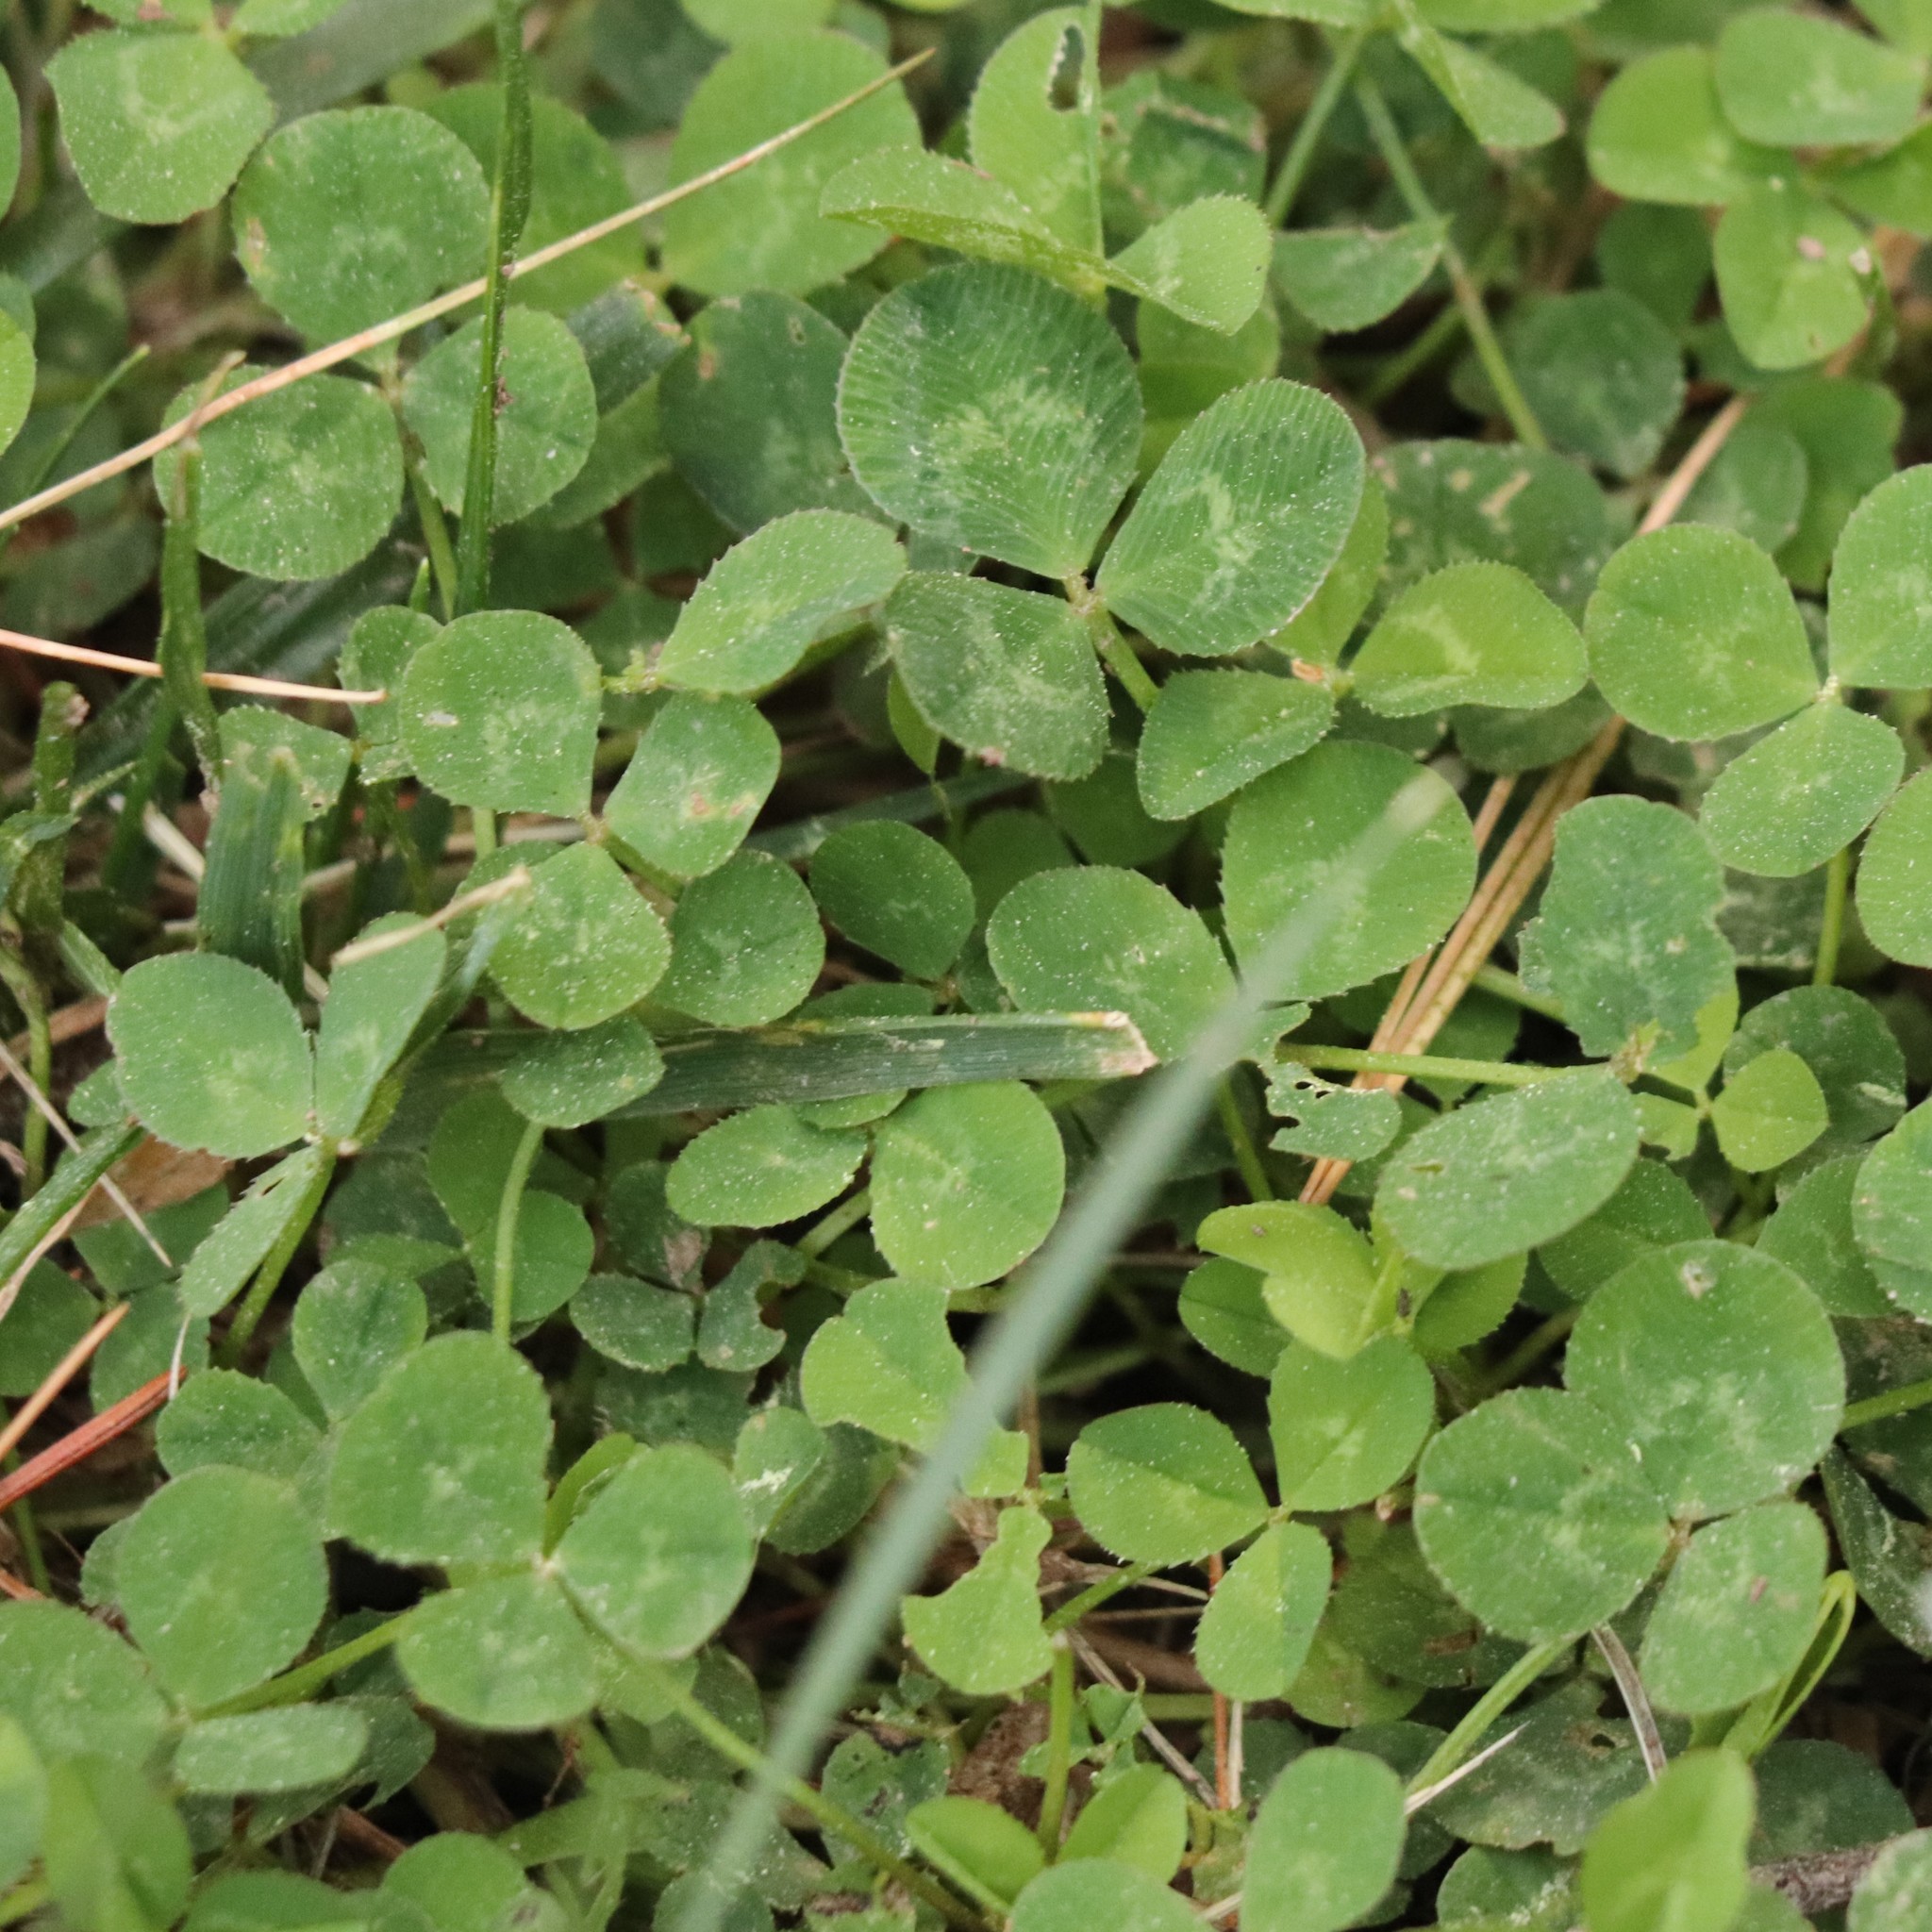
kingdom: Plantae
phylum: Tracheophyta
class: Magnoliopsida
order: Fabales
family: Fabaceae
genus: Trifolium
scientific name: Trifolium repens
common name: White clover
